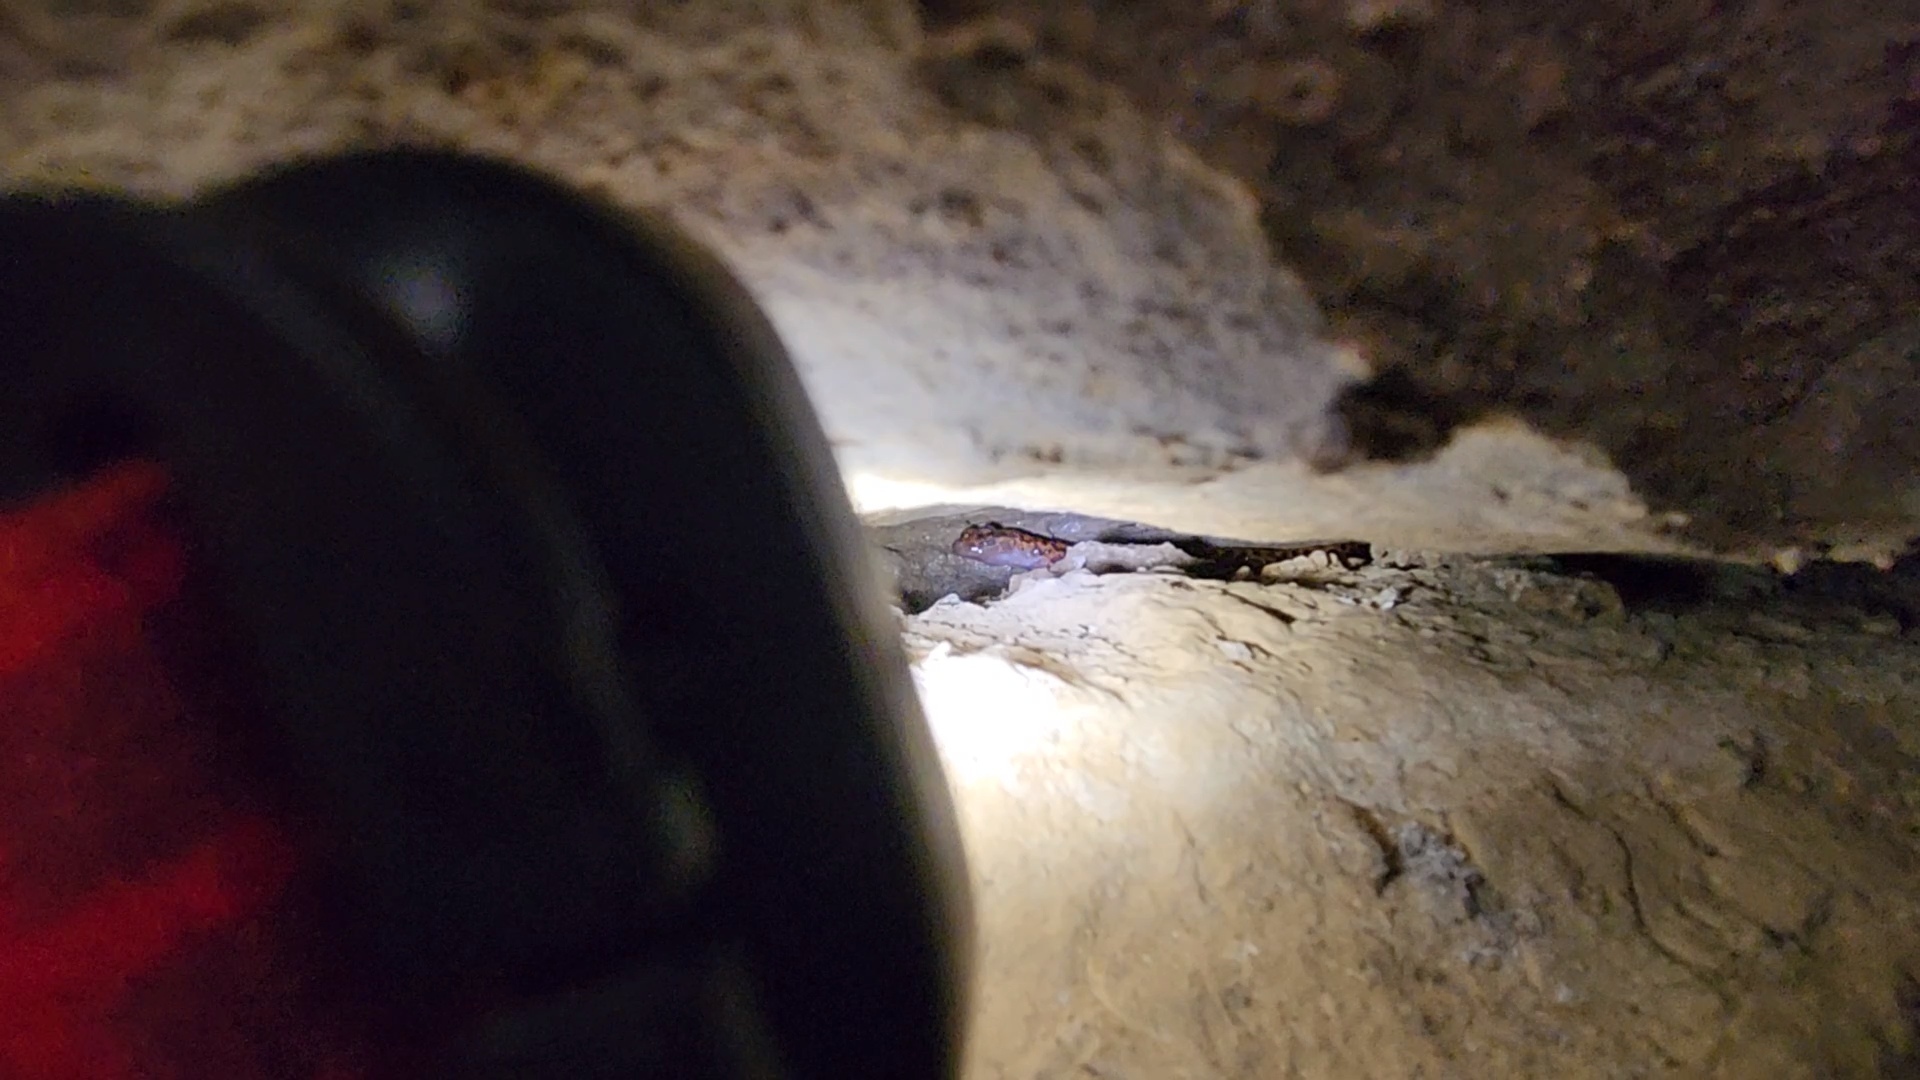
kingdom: Animalia
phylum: Chordata
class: Amphibia
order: Caudata
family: Plethodontidae
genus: Eurycea
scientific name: Eurycea lucifuga
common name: Cave salamander
